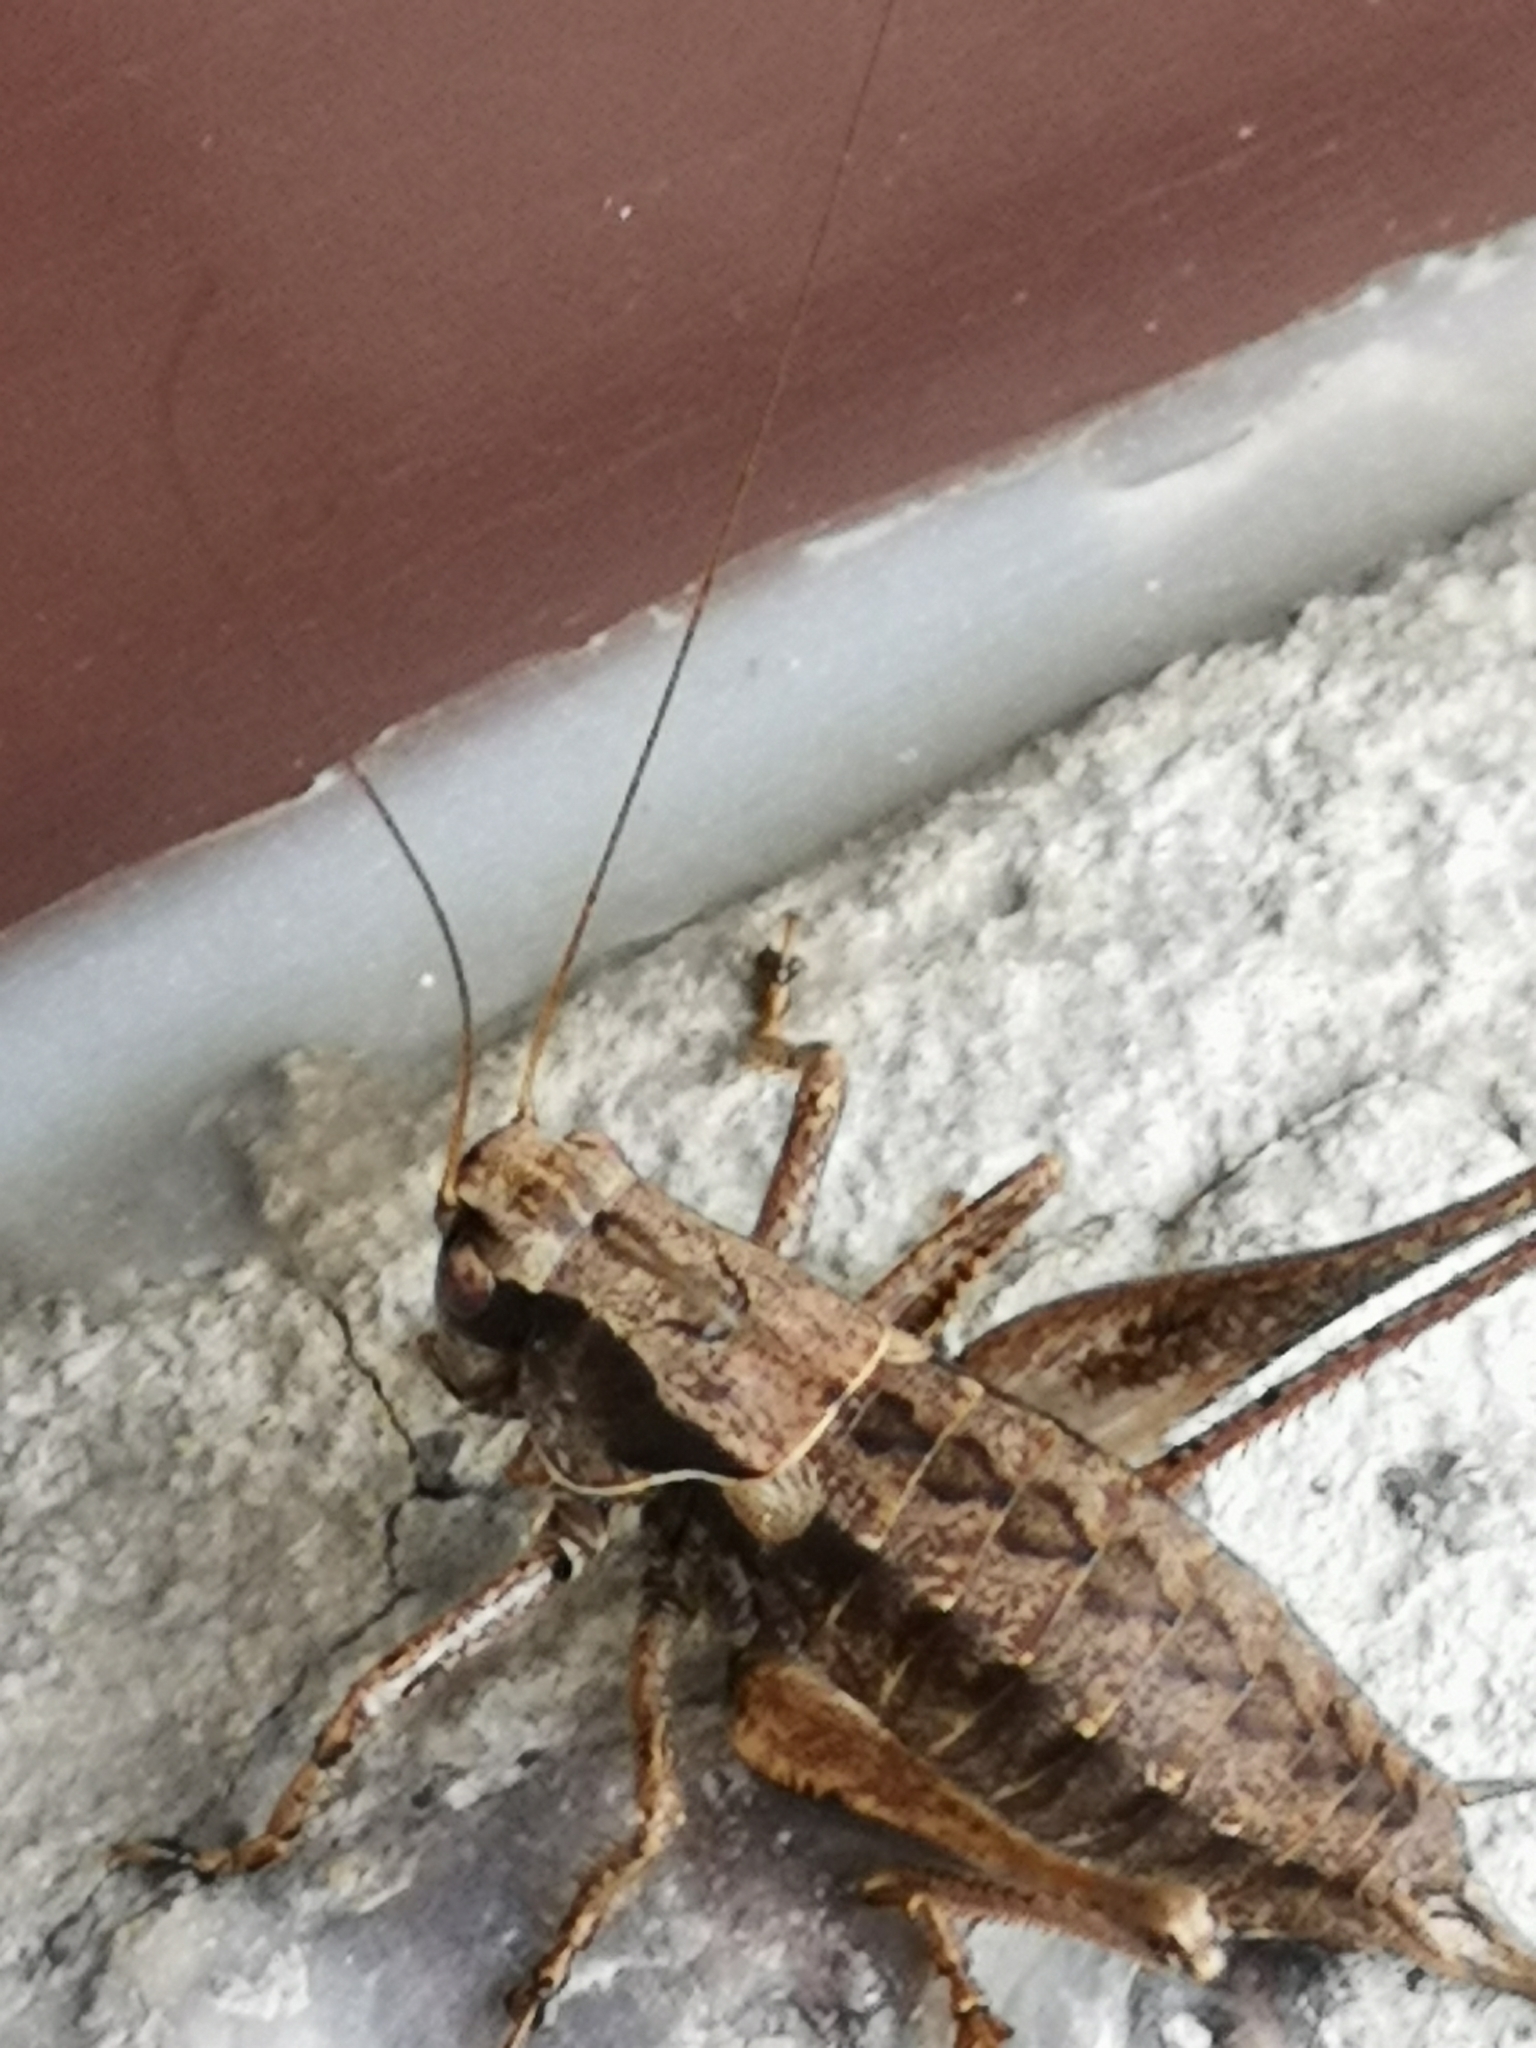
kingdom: Animalia
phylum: Arthropoda
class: Insecta
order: Orthoptera
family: Tettigoniidae
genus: Pholidoptera
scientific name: Pholidoptera griseoaptera
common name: Dark bush-cricket
